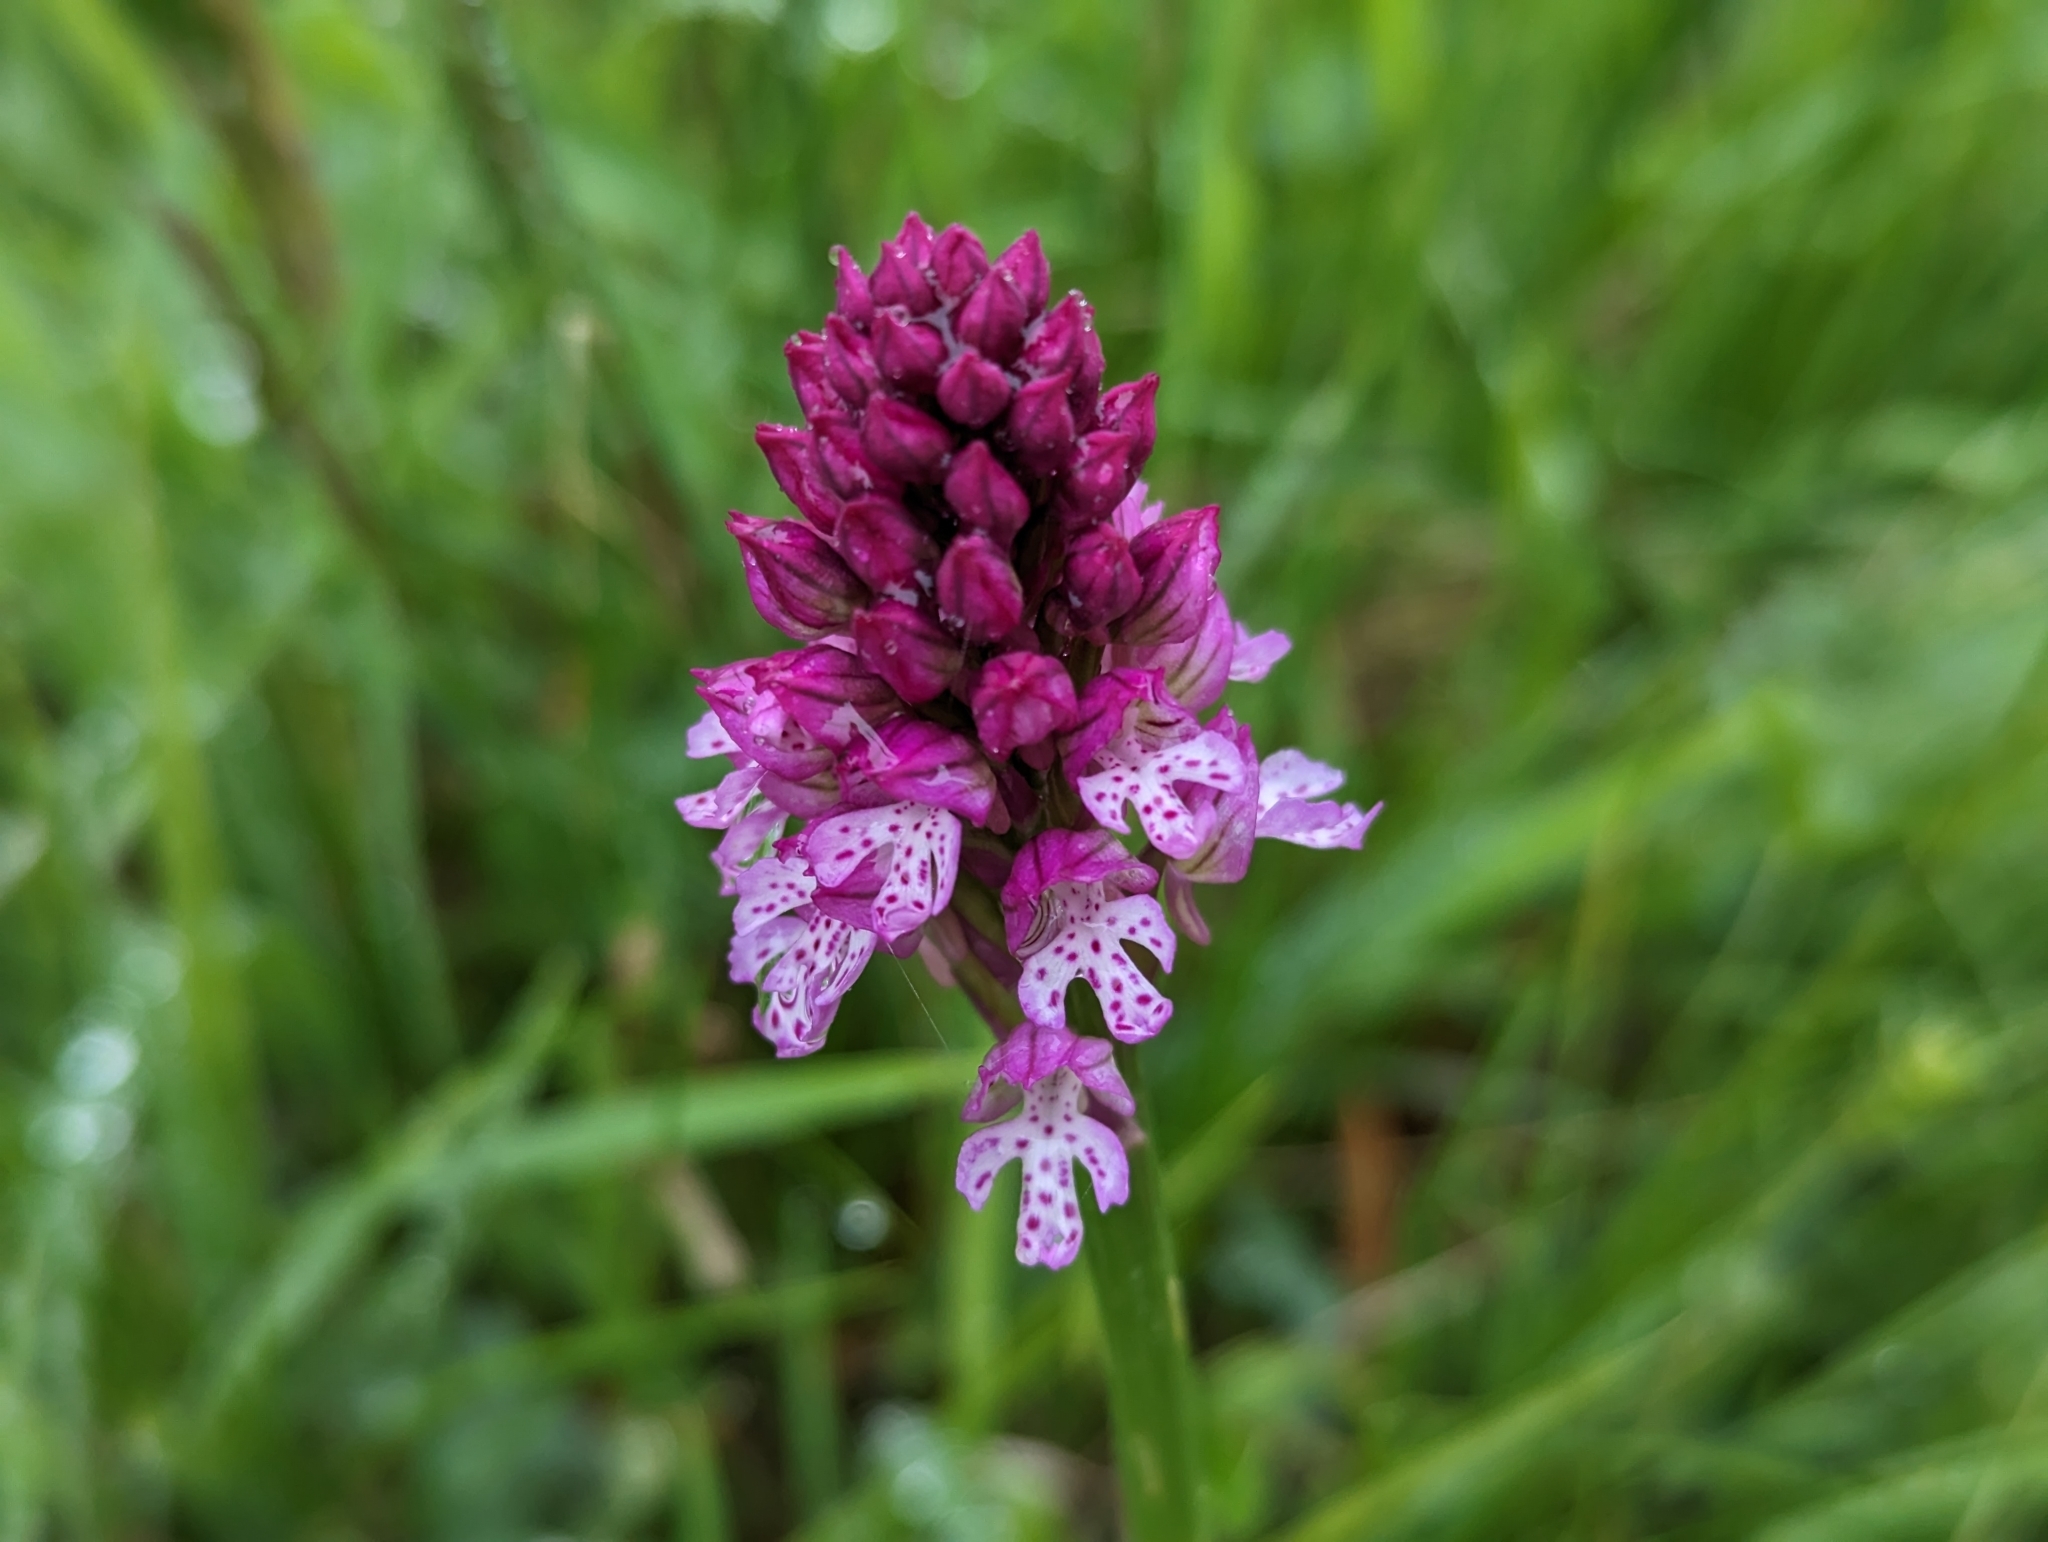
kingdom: Plantae
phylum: Tracheophyta
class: Liliopsida
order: Asparagales
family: Orchidaceae
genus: Neotinea
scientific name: Neotinea dietrichiana
